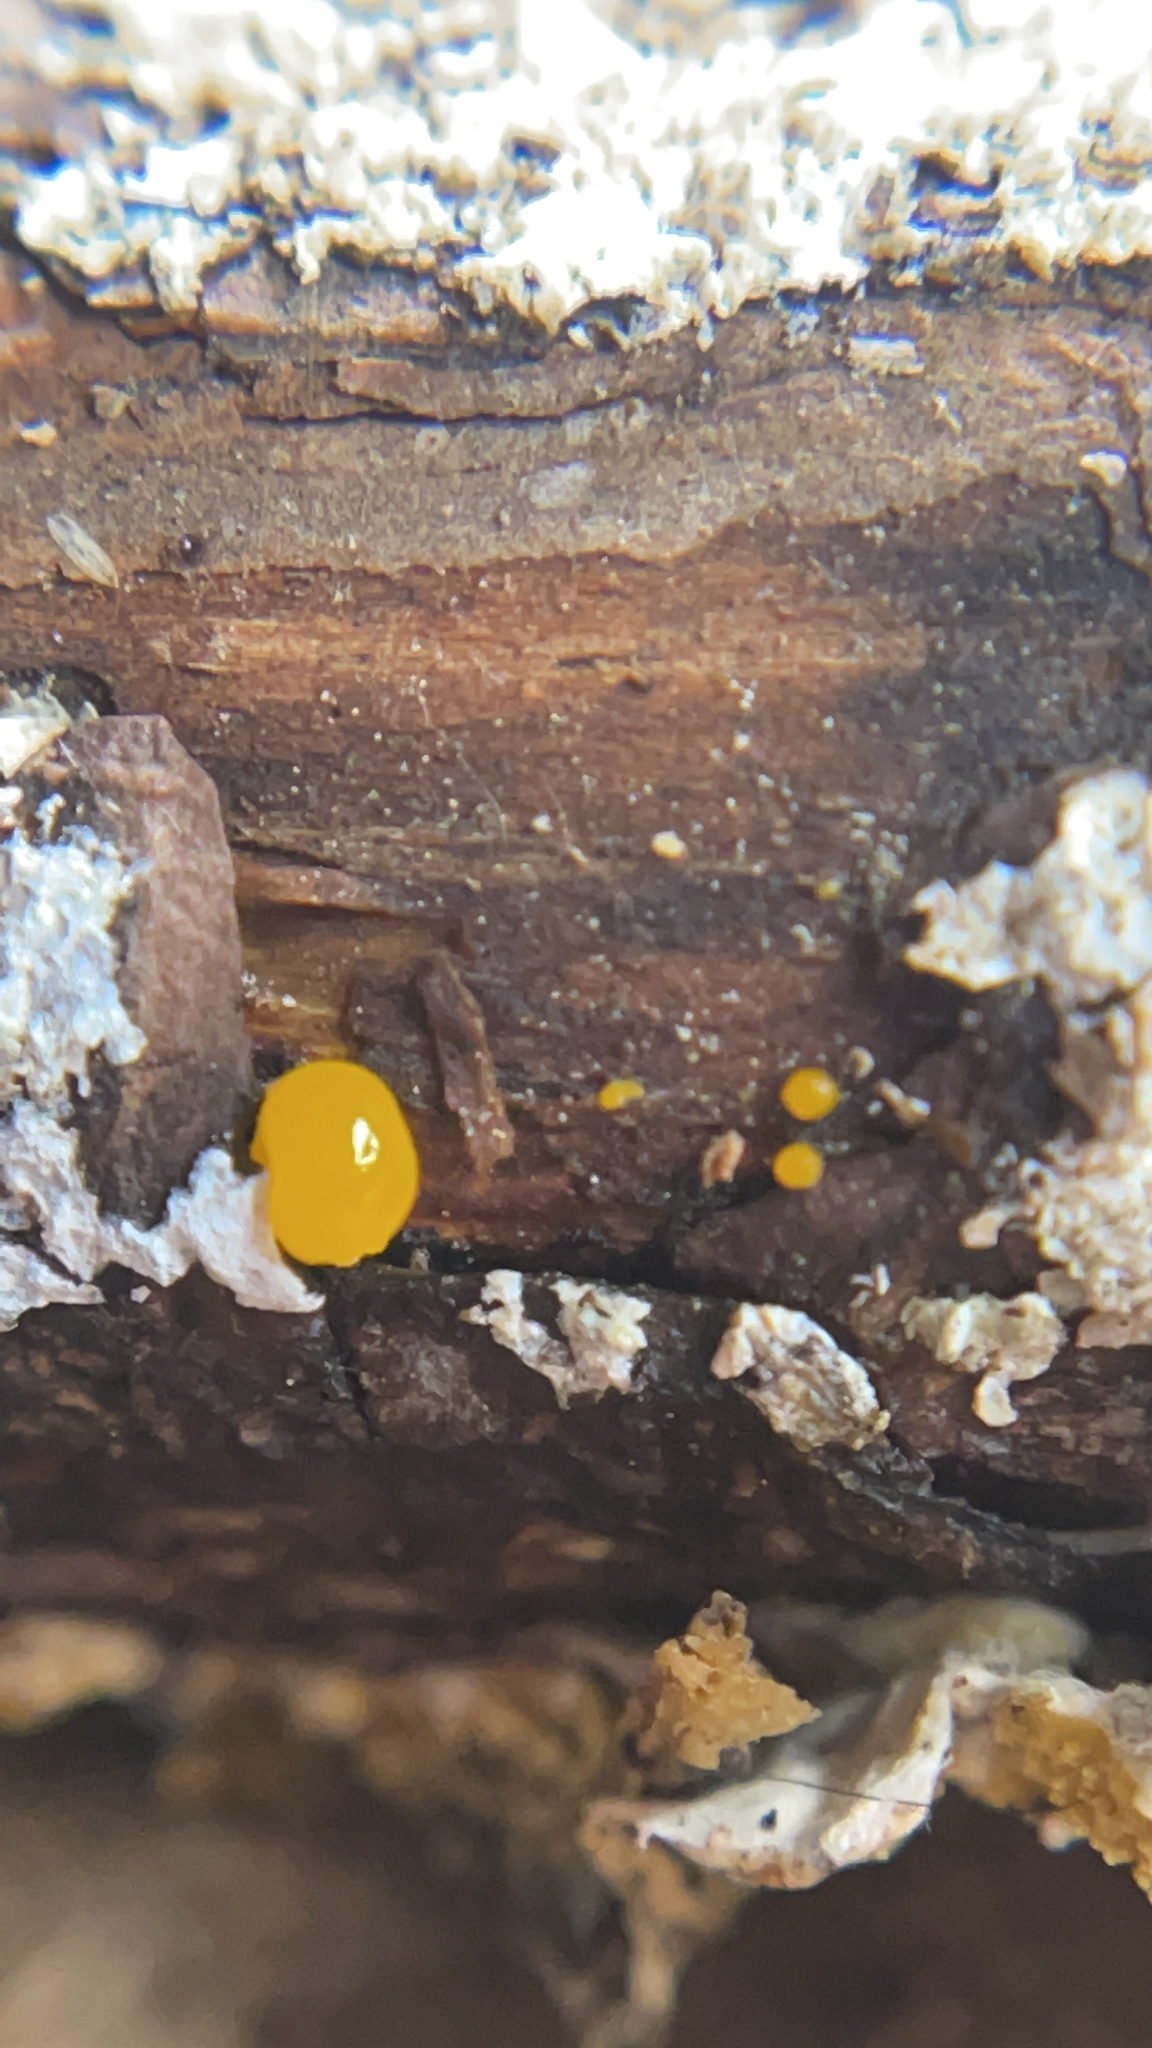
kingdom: Fungi
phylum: Basidiomycota
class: Dacrymycetes
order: Dacrymycetales
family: Dacrymycetaceae
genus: Dacrymyces
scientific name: Dacrymyces stillatus
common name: Common jelly spot
